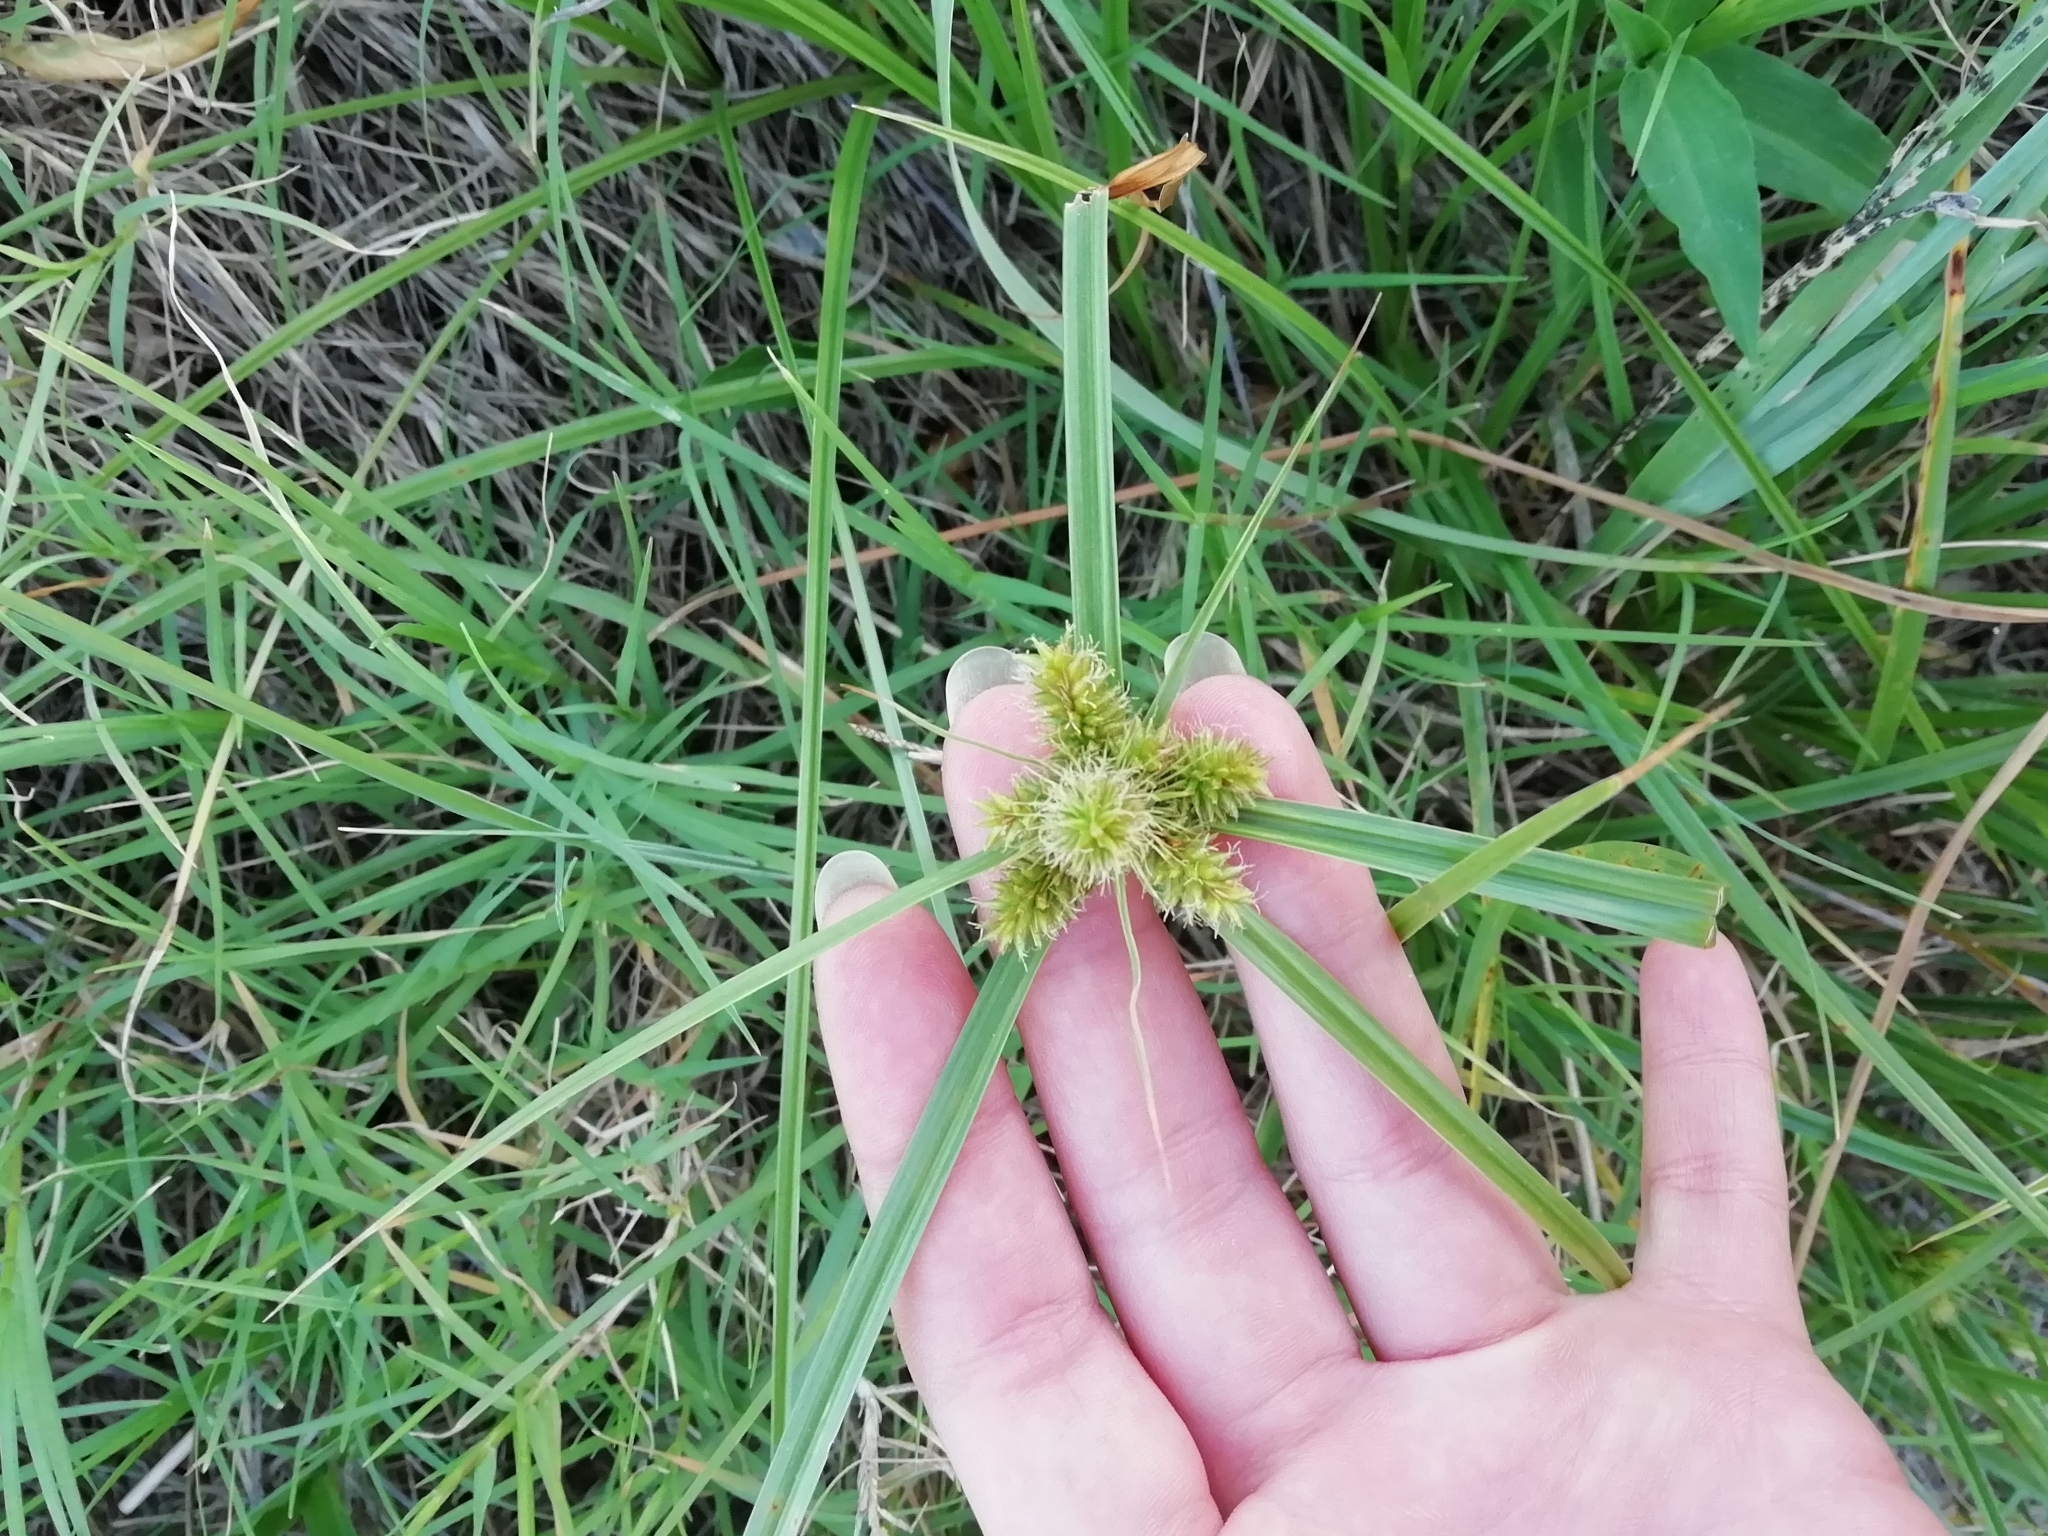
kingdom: Plantae
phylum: Tracheophyta
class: Liliopsida
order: Poales
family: Cyperaceae
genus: Cyperus
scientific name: Cyperus aggregatus
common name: Inflatedscale flatsedge
